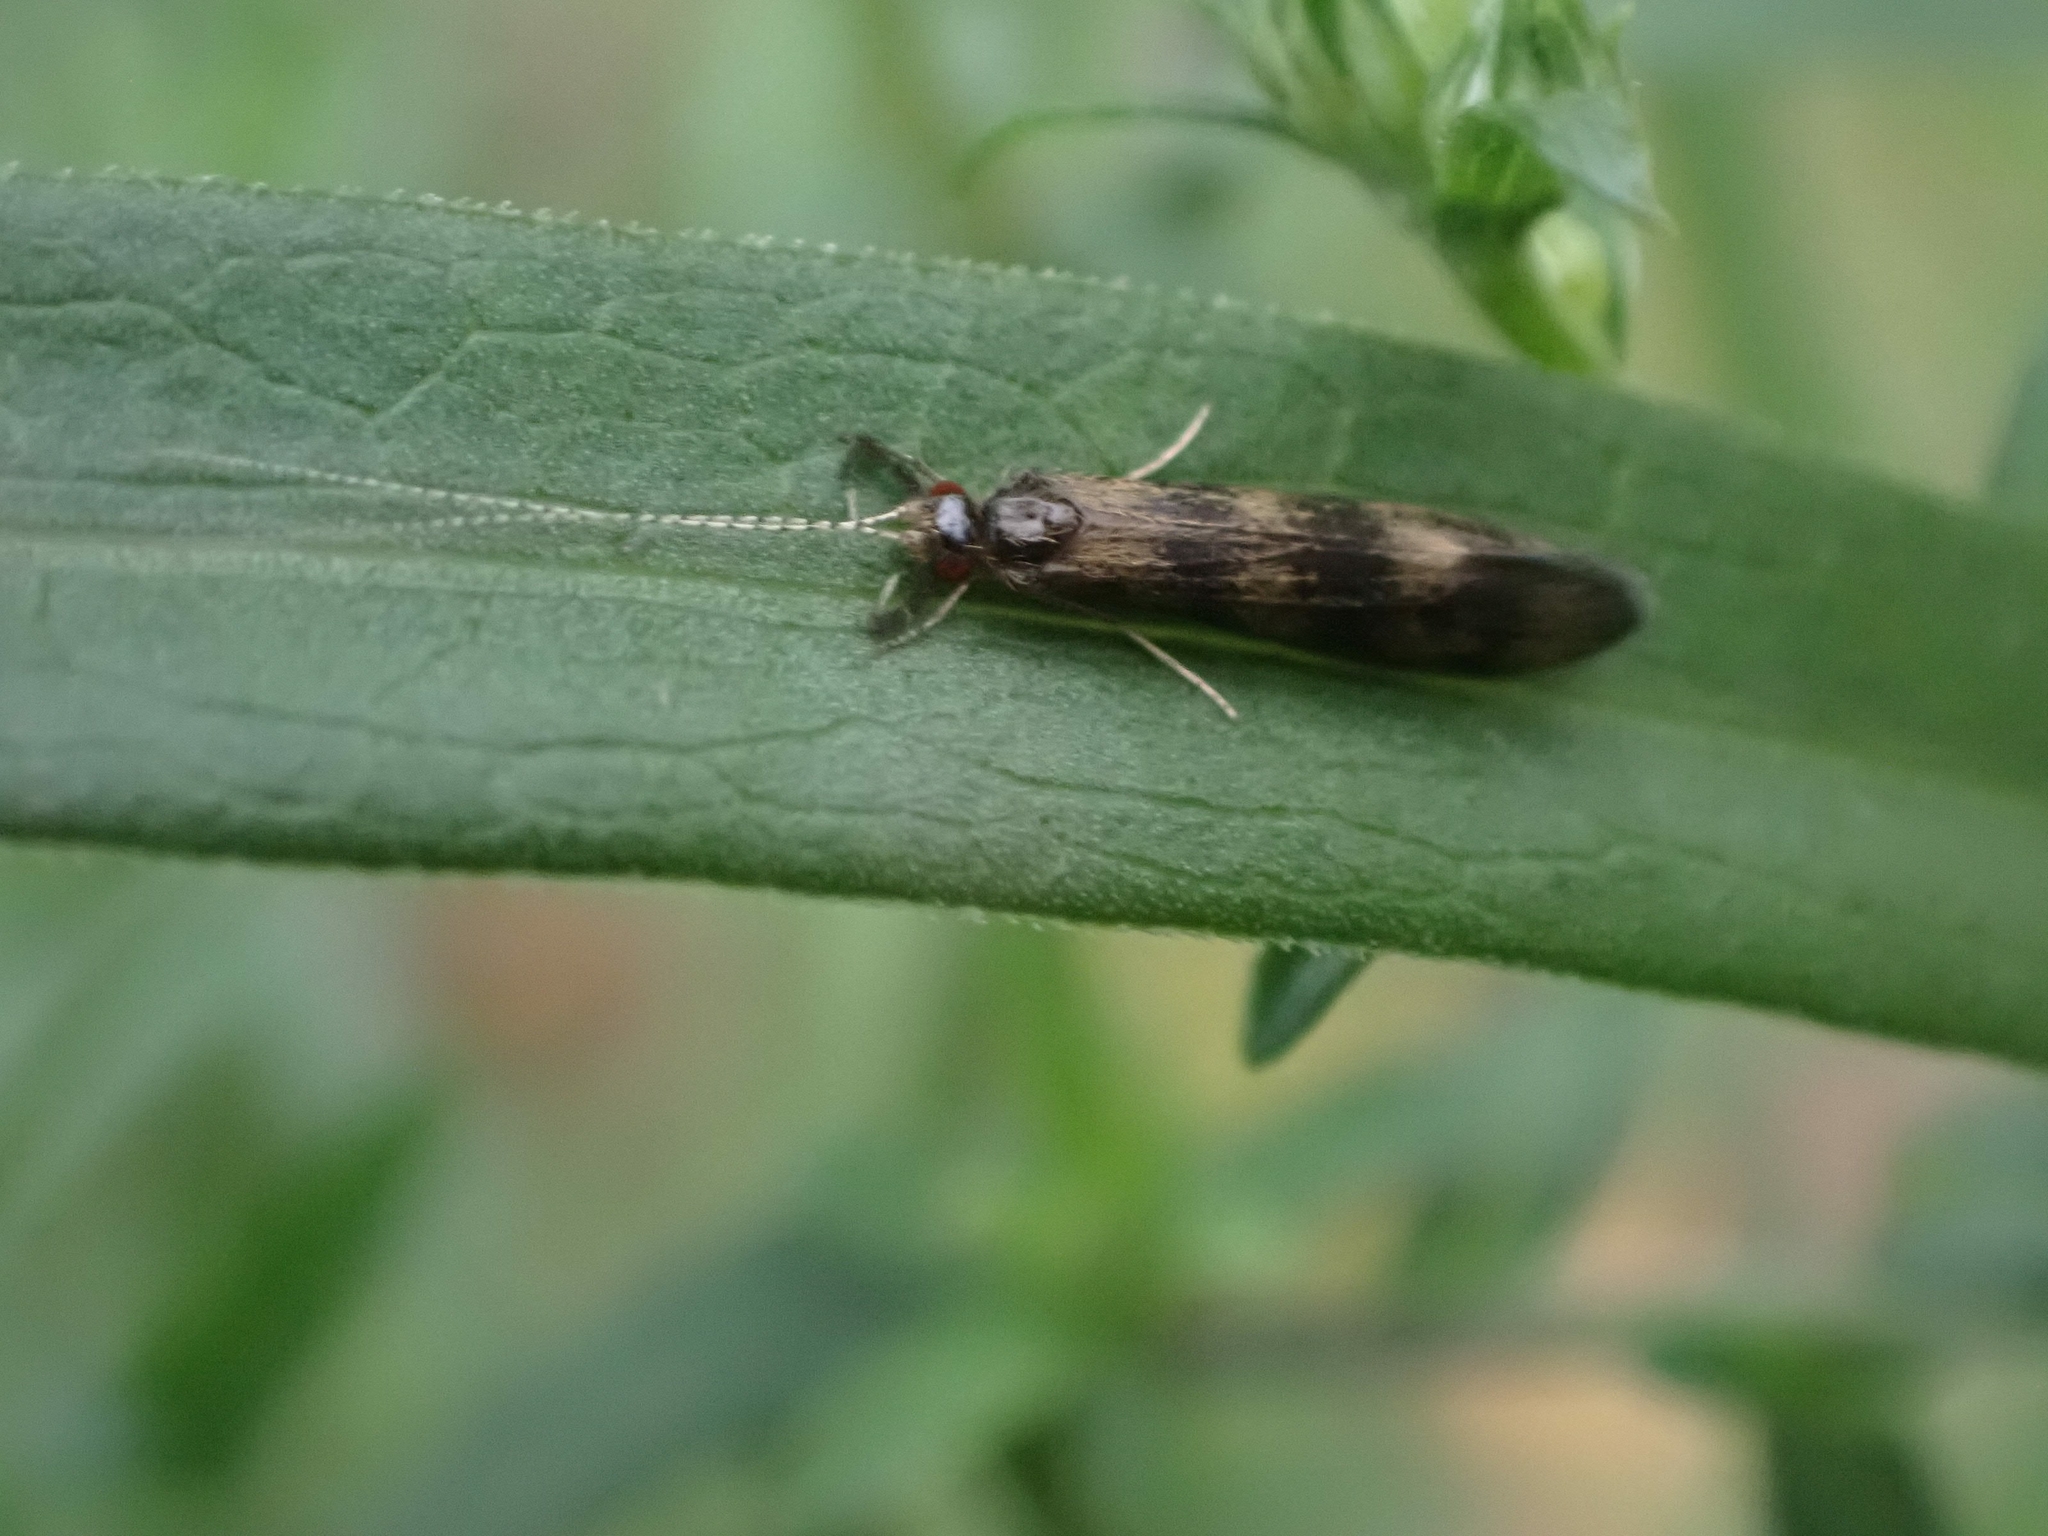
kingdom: Animalia
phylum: Arthropoda
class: Insecta
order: Trichoptera
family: Leptoceridae
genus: Mystacides
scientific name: Mystacides interjectus
